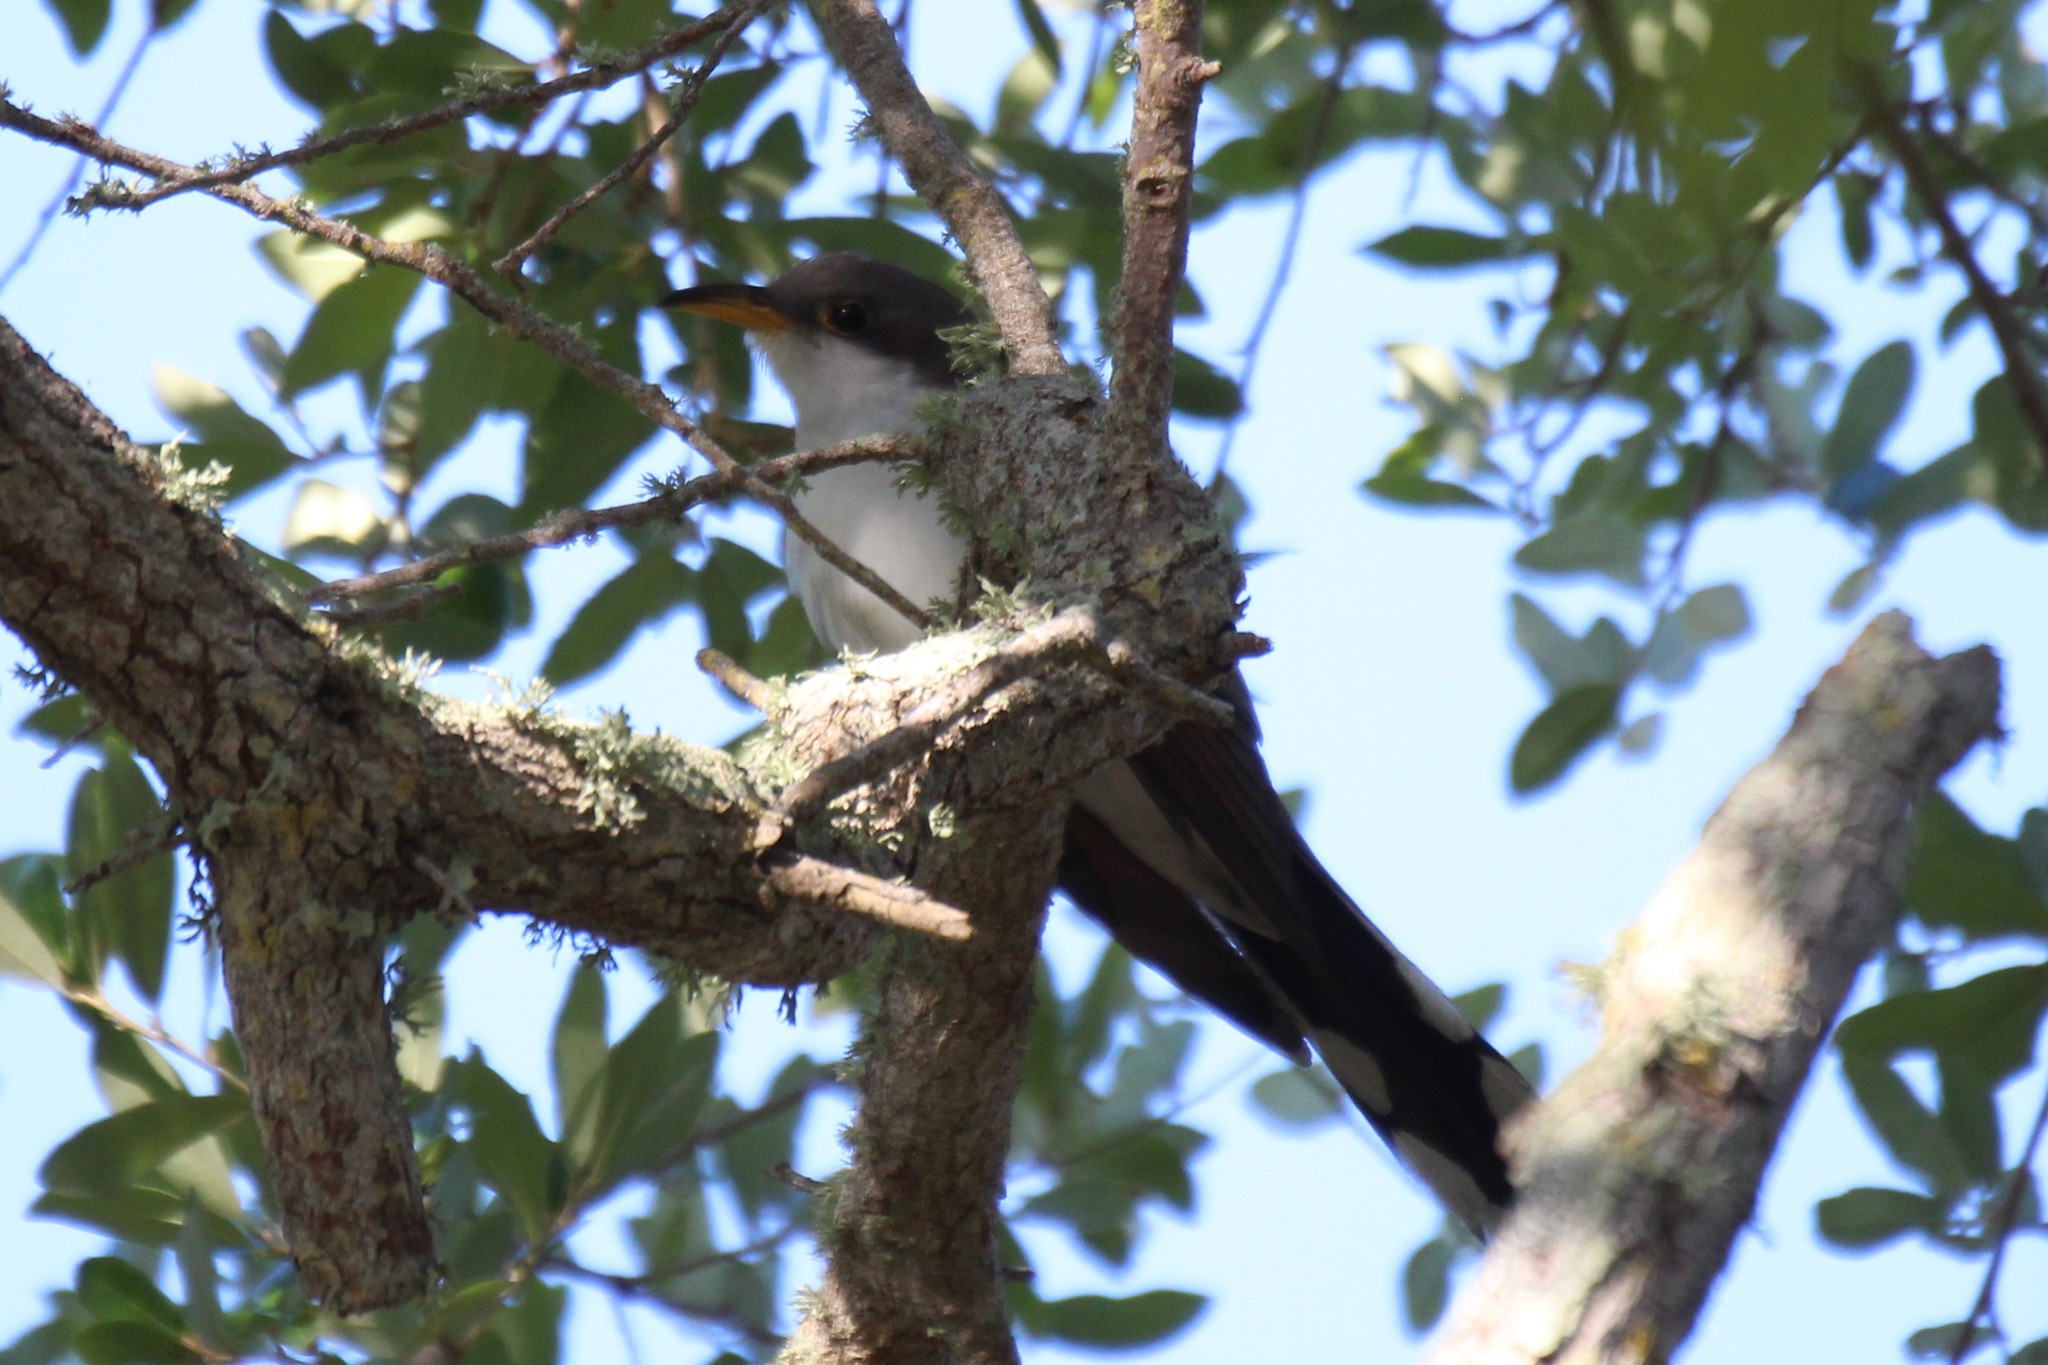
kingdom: Animalia
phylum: Chordata
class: Aves
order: Cuculiformes
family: Cuculidae
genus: Coccyzus
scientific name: Coccyzus americanus
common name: Yellow-billed cuckoo
